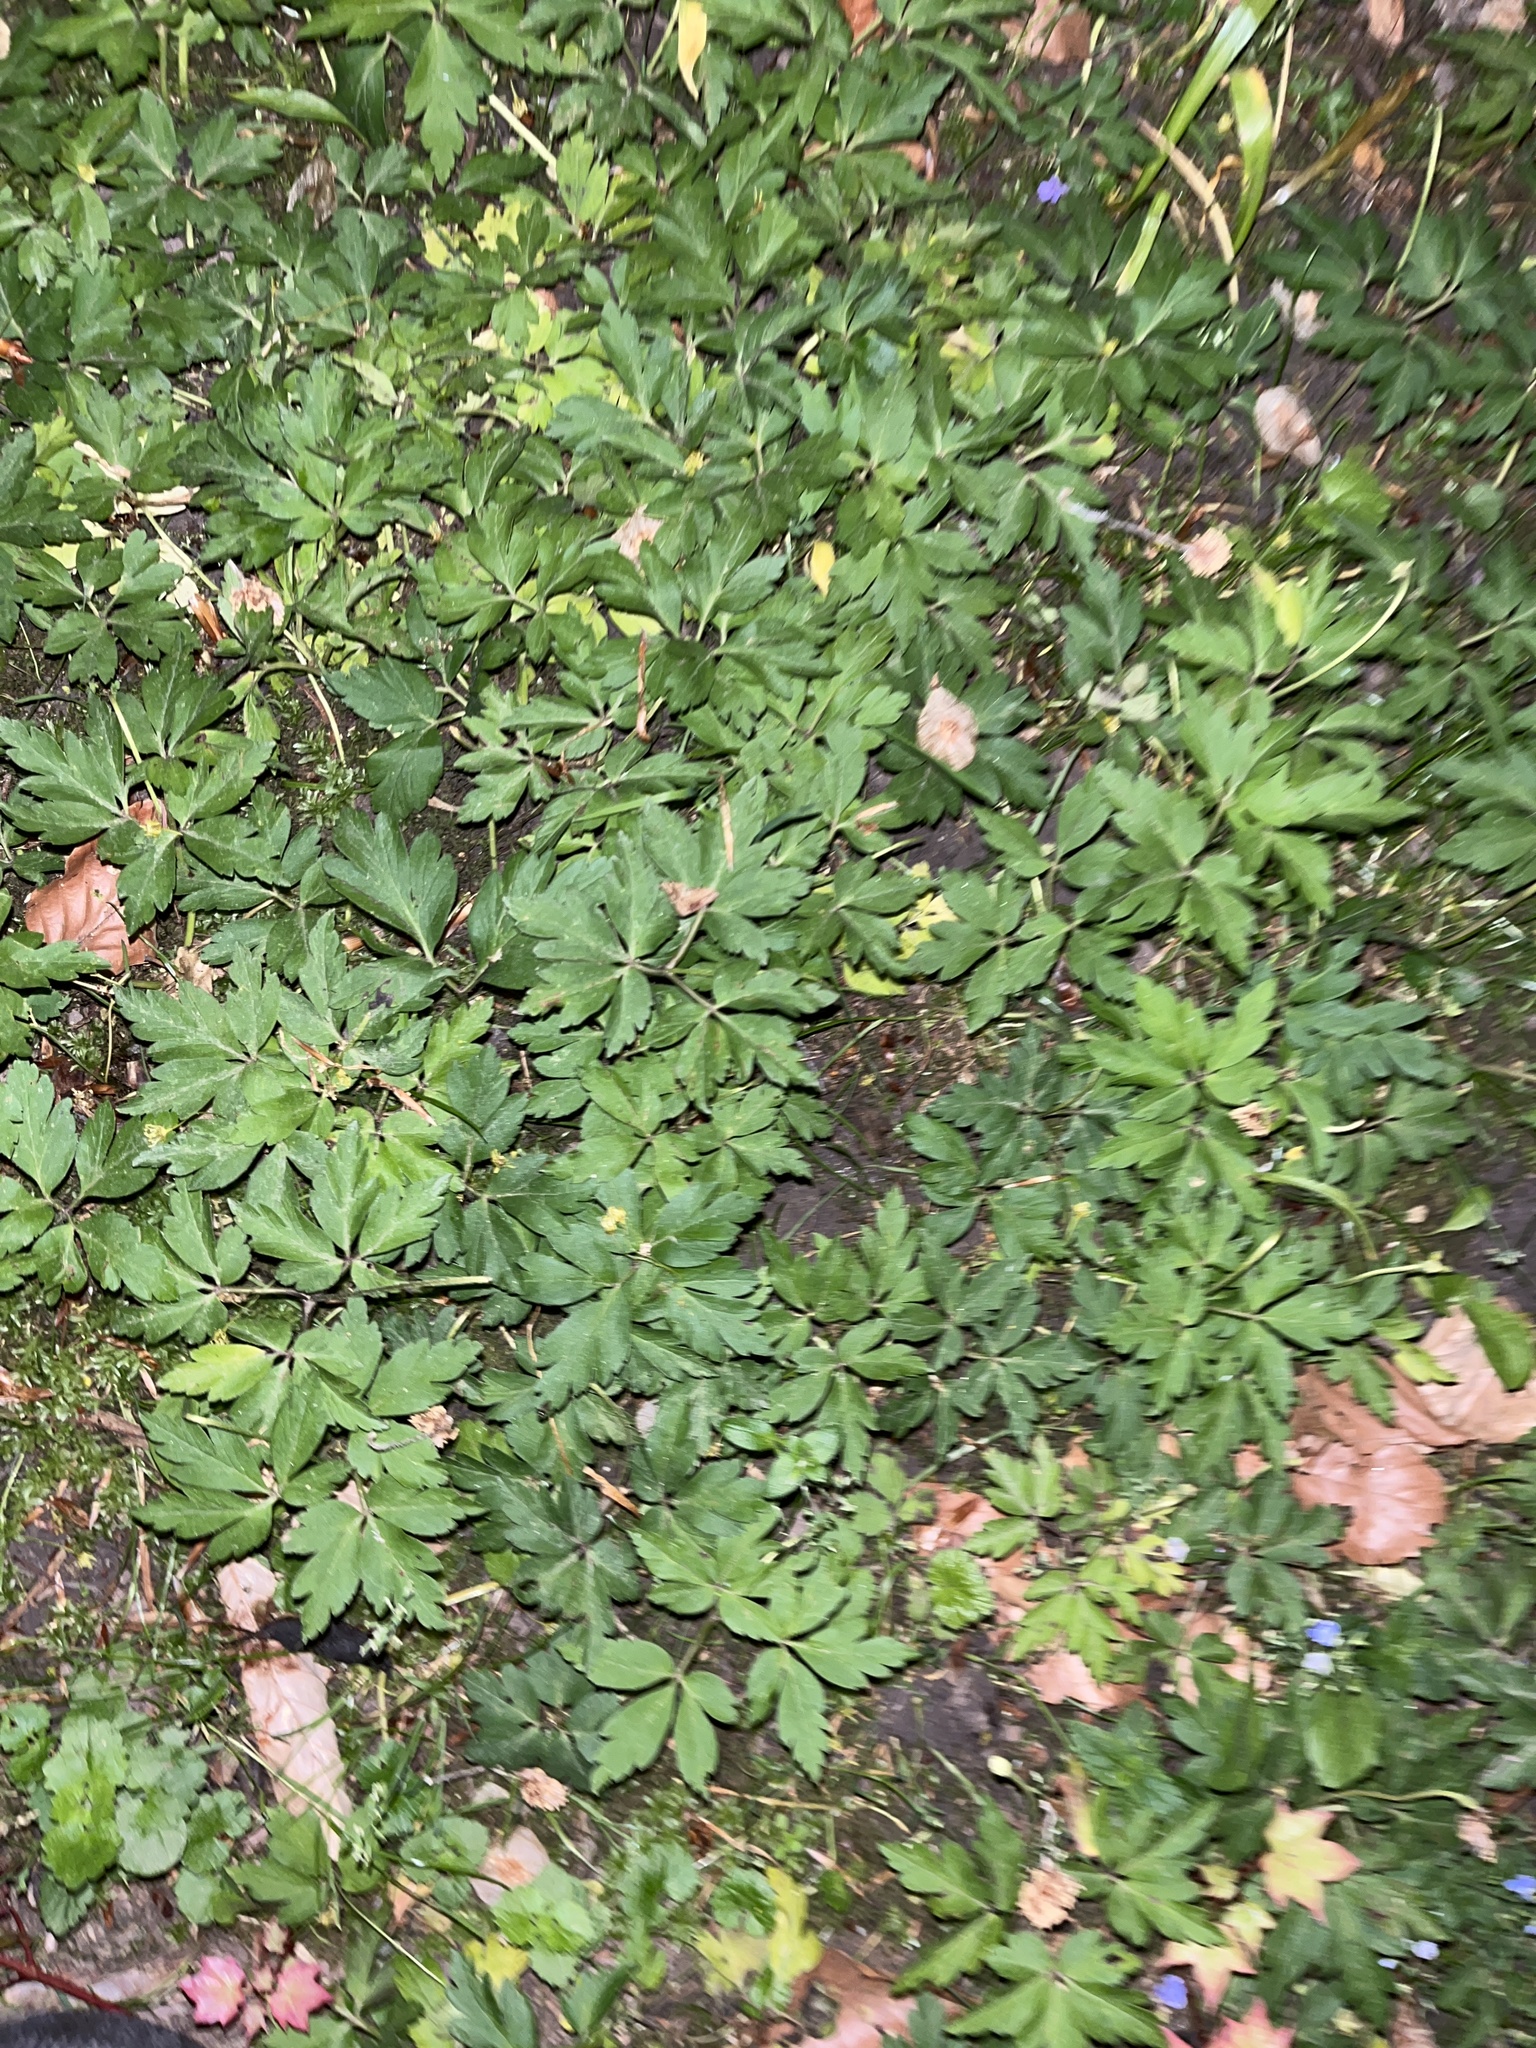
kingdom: Plantae
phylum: Tracheophyta
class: Magnoliopsida
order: Ranunculales
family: Ranunculaceae
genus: Anemone
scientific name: Anemone nemorosa
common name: Wood anemone
